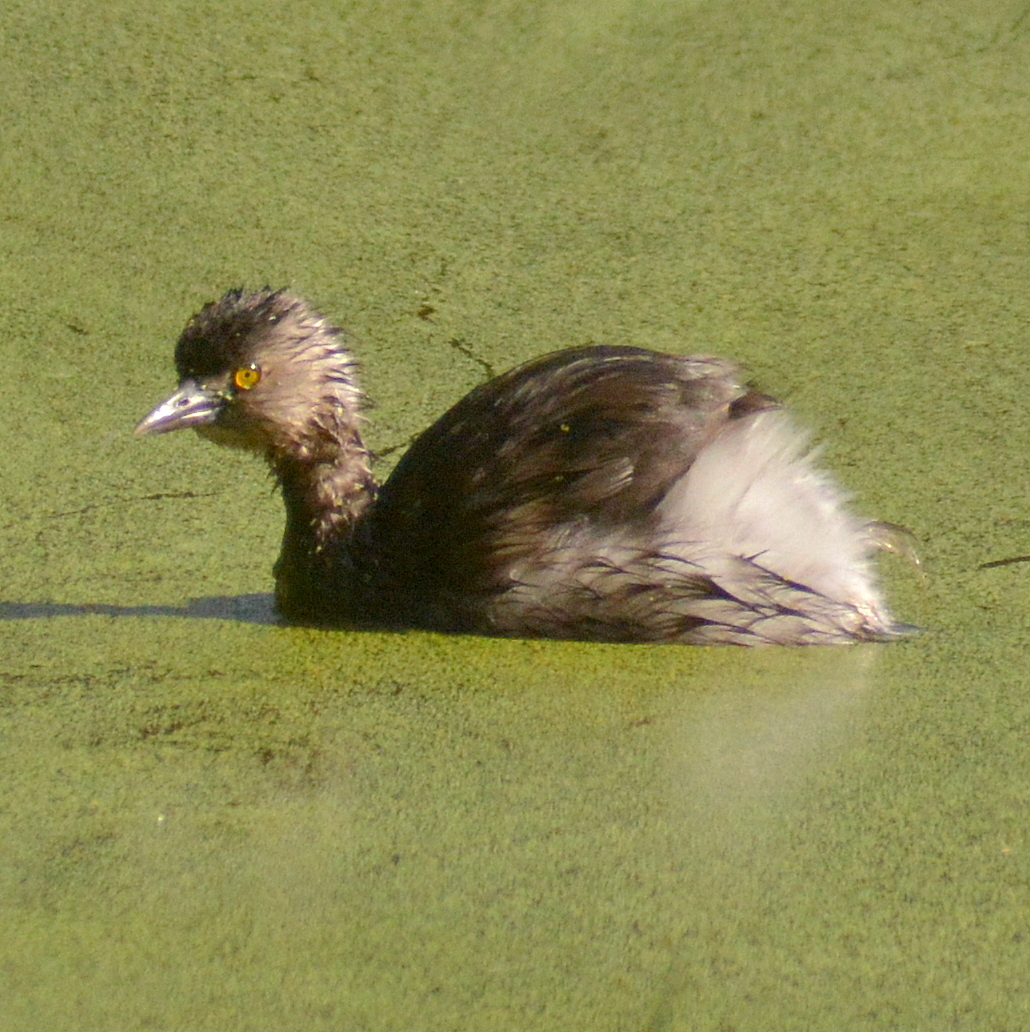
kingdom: Animalia
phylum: Chordata
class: Aves
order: Podicipediformes
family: Podicipedidae
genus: Tachybaptus
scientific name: Tachybaptus dominicus
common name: Least grebe
